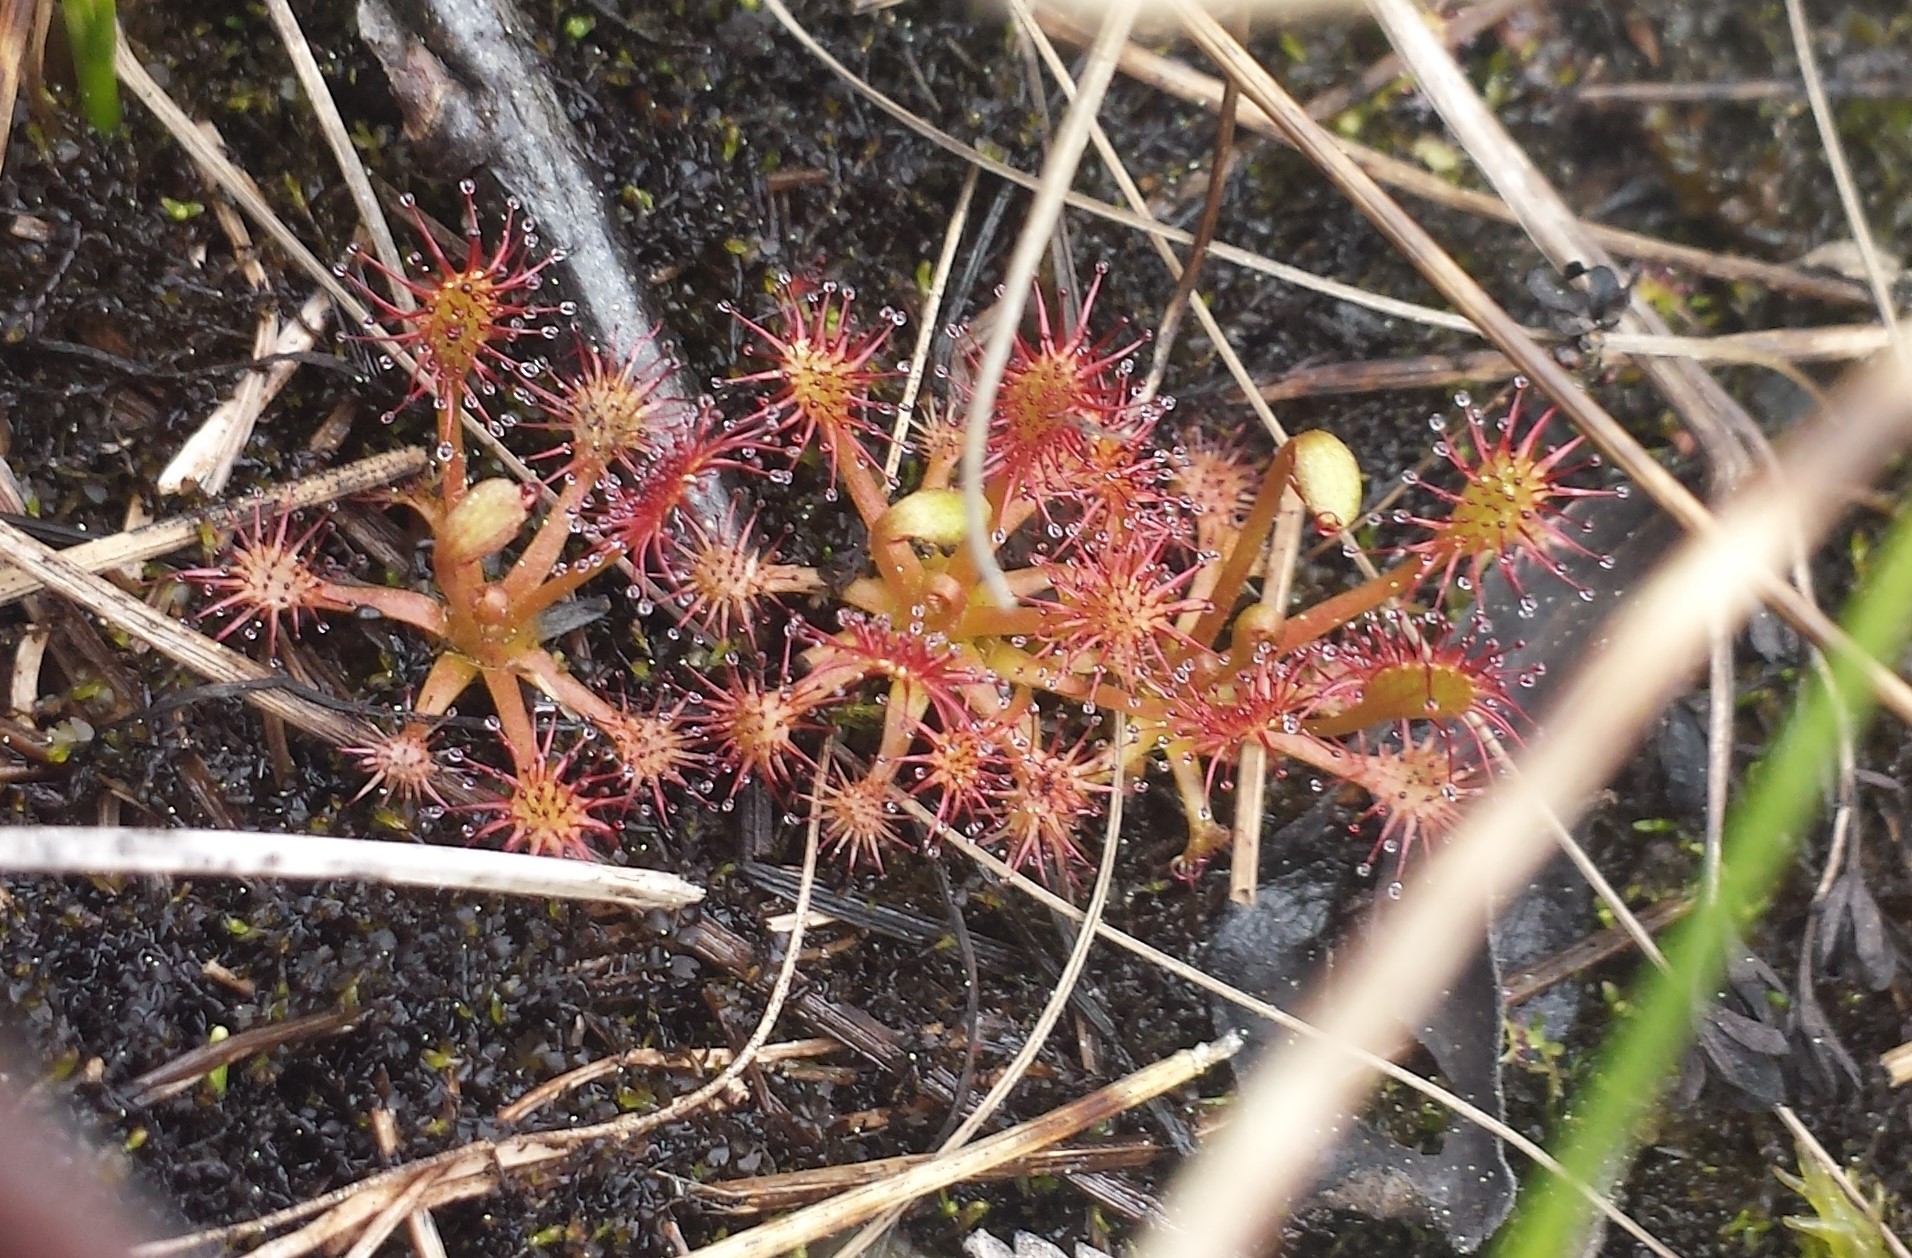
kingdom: Plantae
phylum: Tracheophyta
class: Magnoliopsida
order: Caryophyllales
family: Droseraceae
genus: Drosera
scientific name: Drosera intermedia
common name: Oblong-leaved sundew
